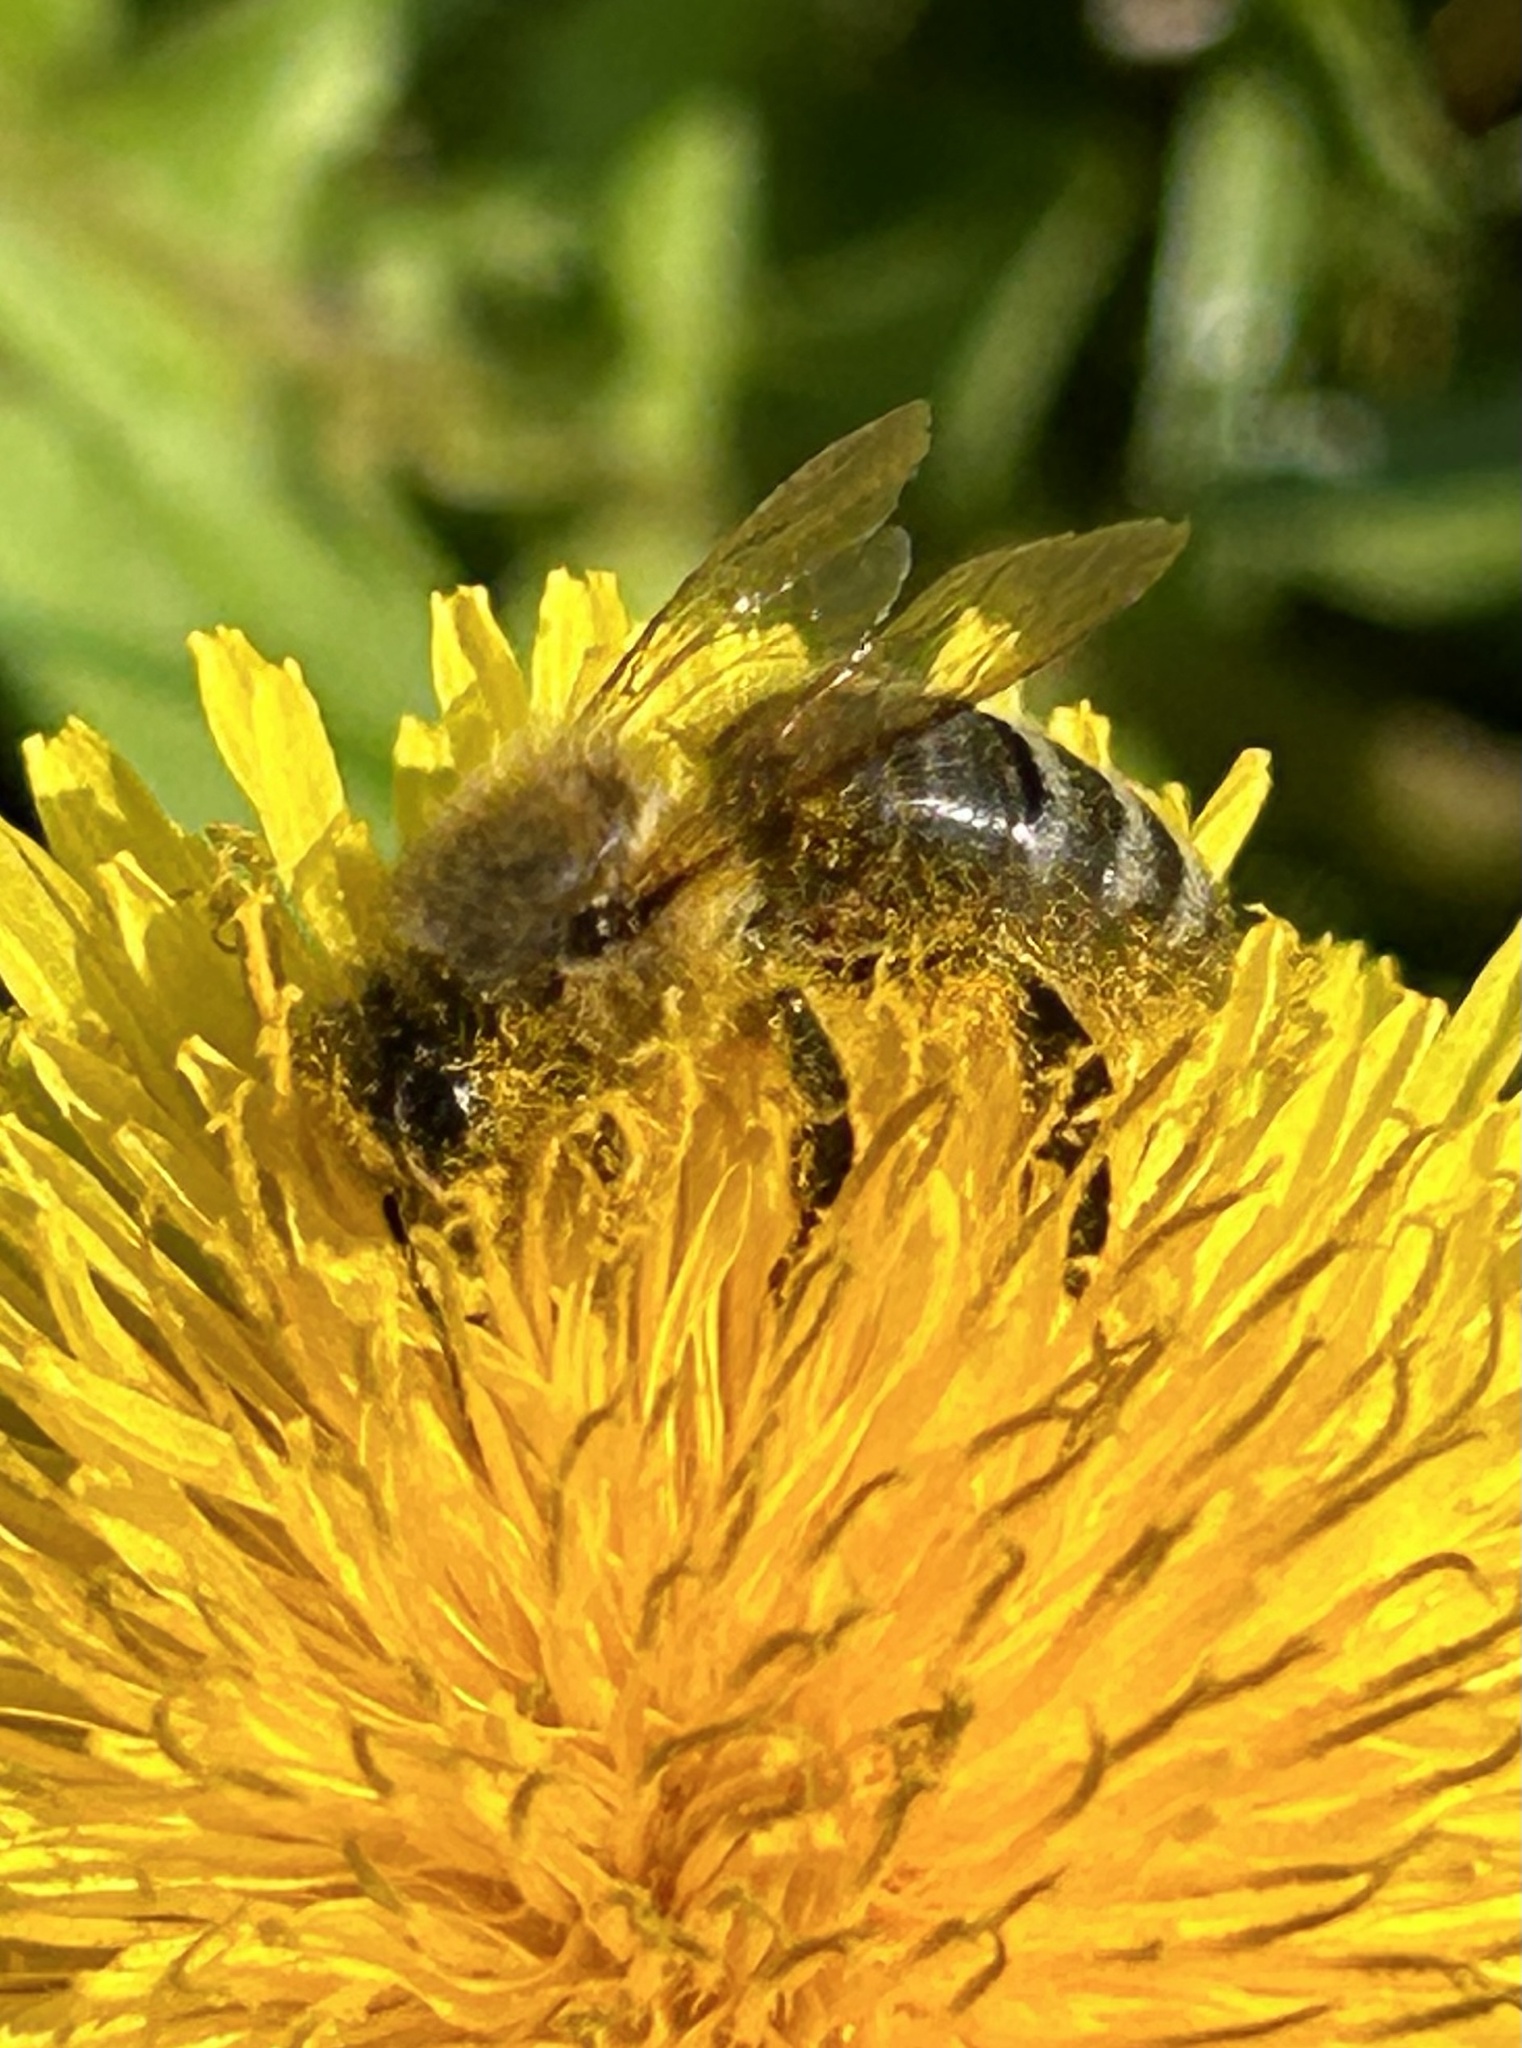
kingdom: Animalia
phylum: Arthropoda
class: Insecta
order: Hymenoptera
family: Apidae
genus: Apis
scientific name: Apis mellifera
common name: Honey bee
